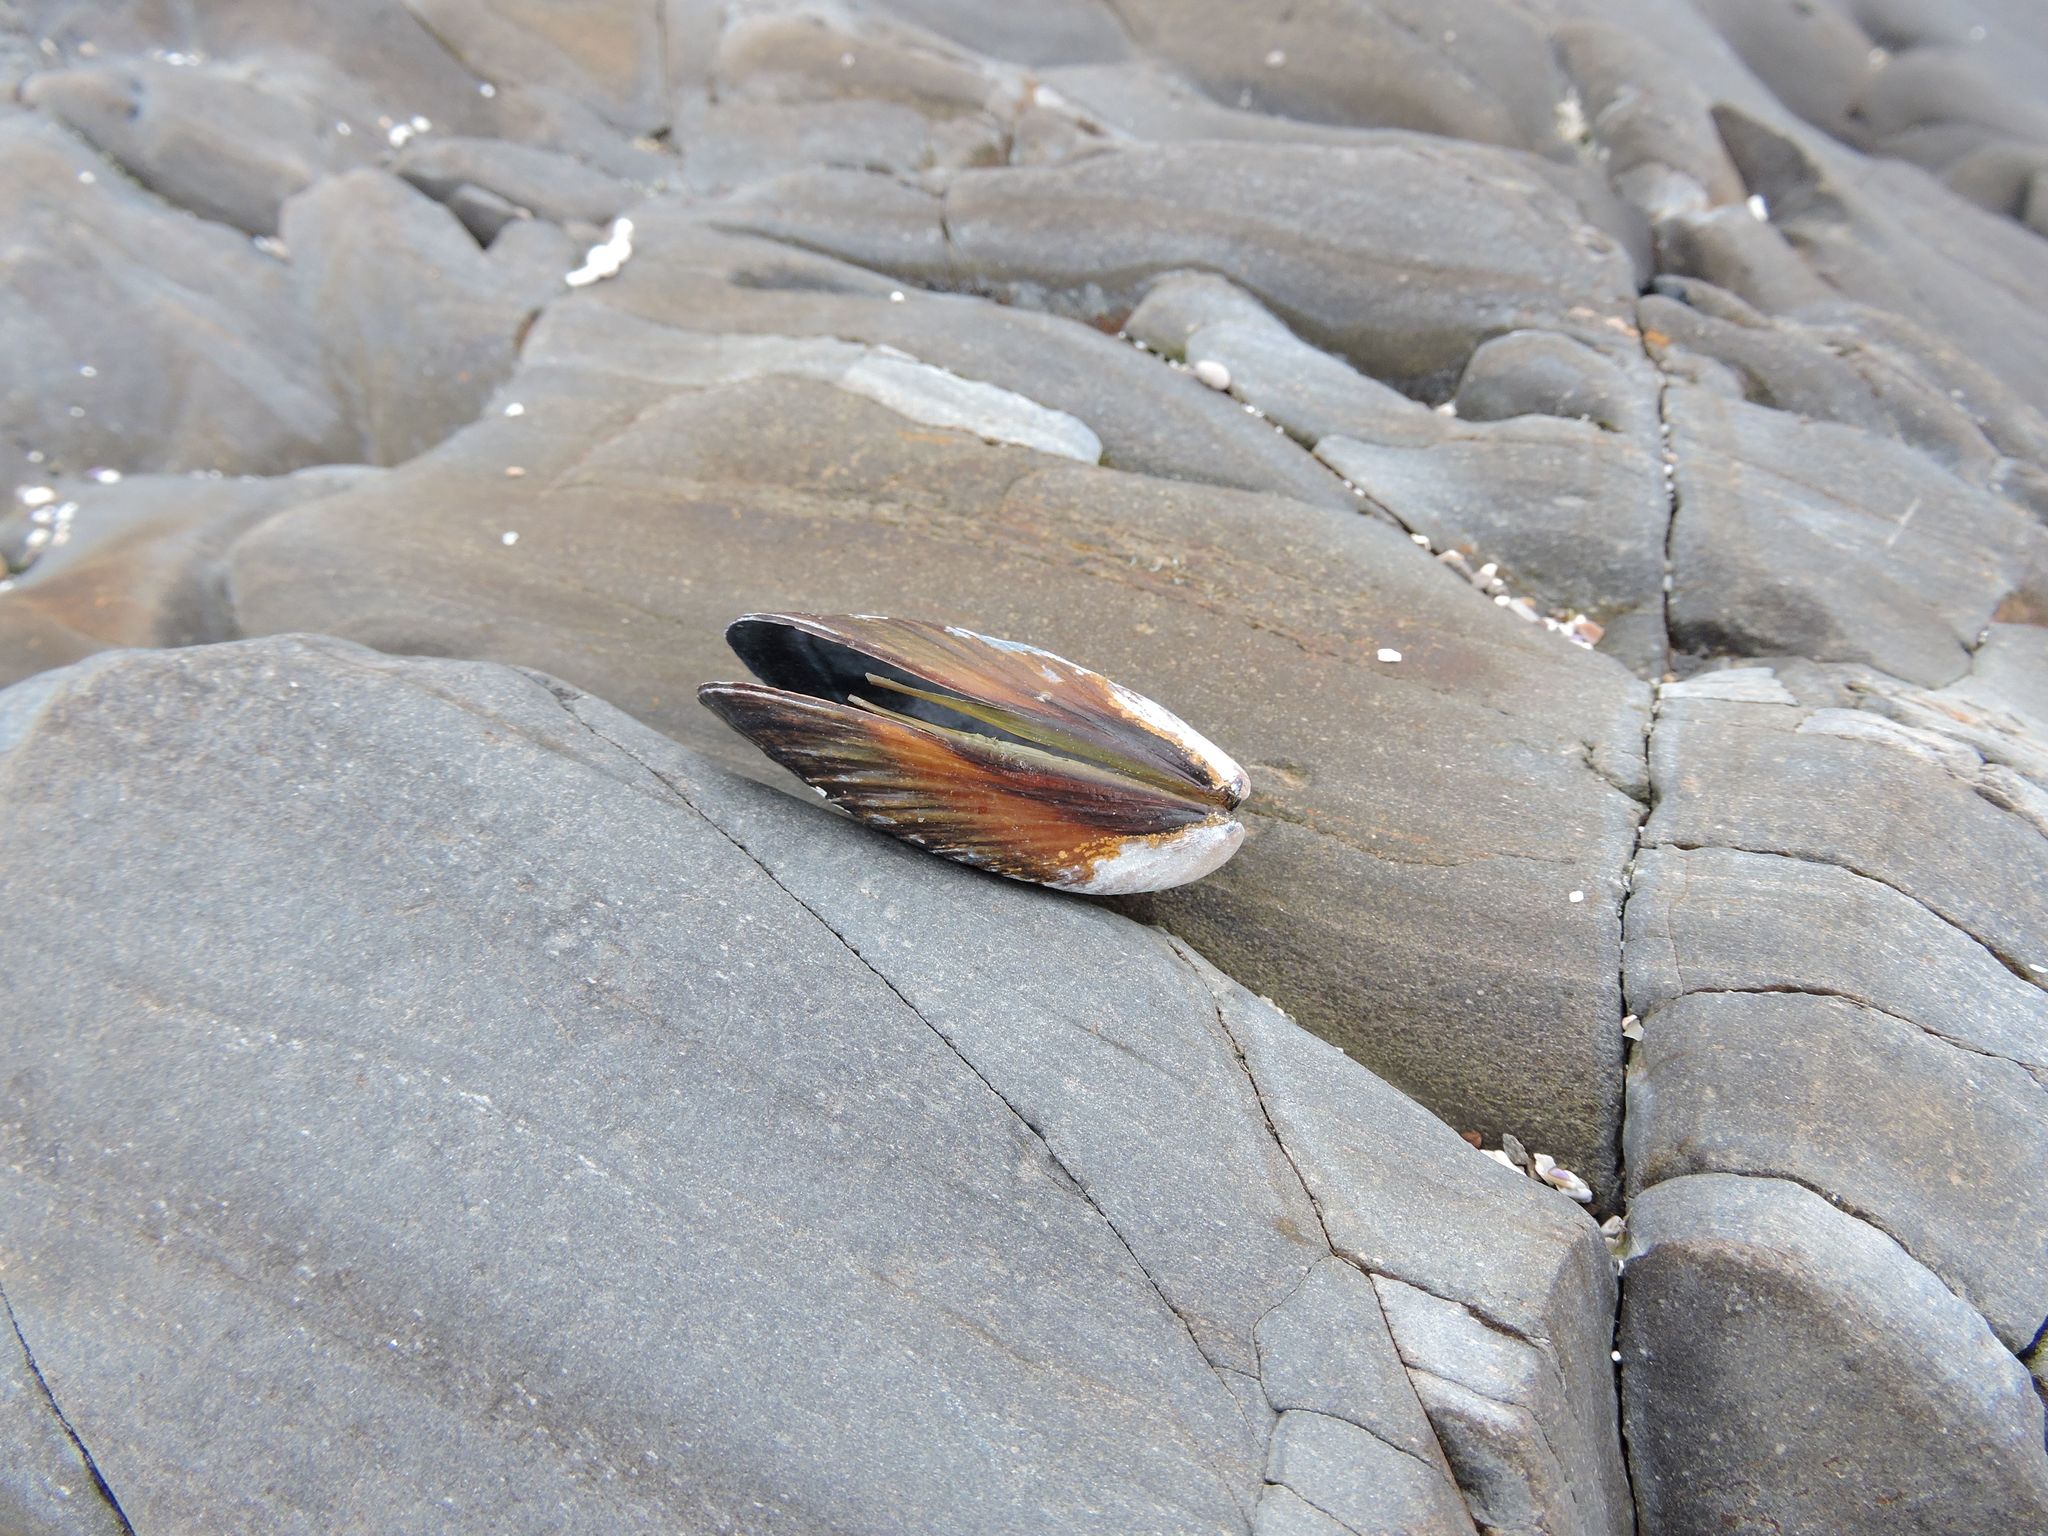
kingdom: Animalia
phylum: Mollusca
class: Bivalvia
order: Mytilida
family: Mytilidae
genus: Mytilus
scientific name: Mytilus californianus
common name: California mussel
